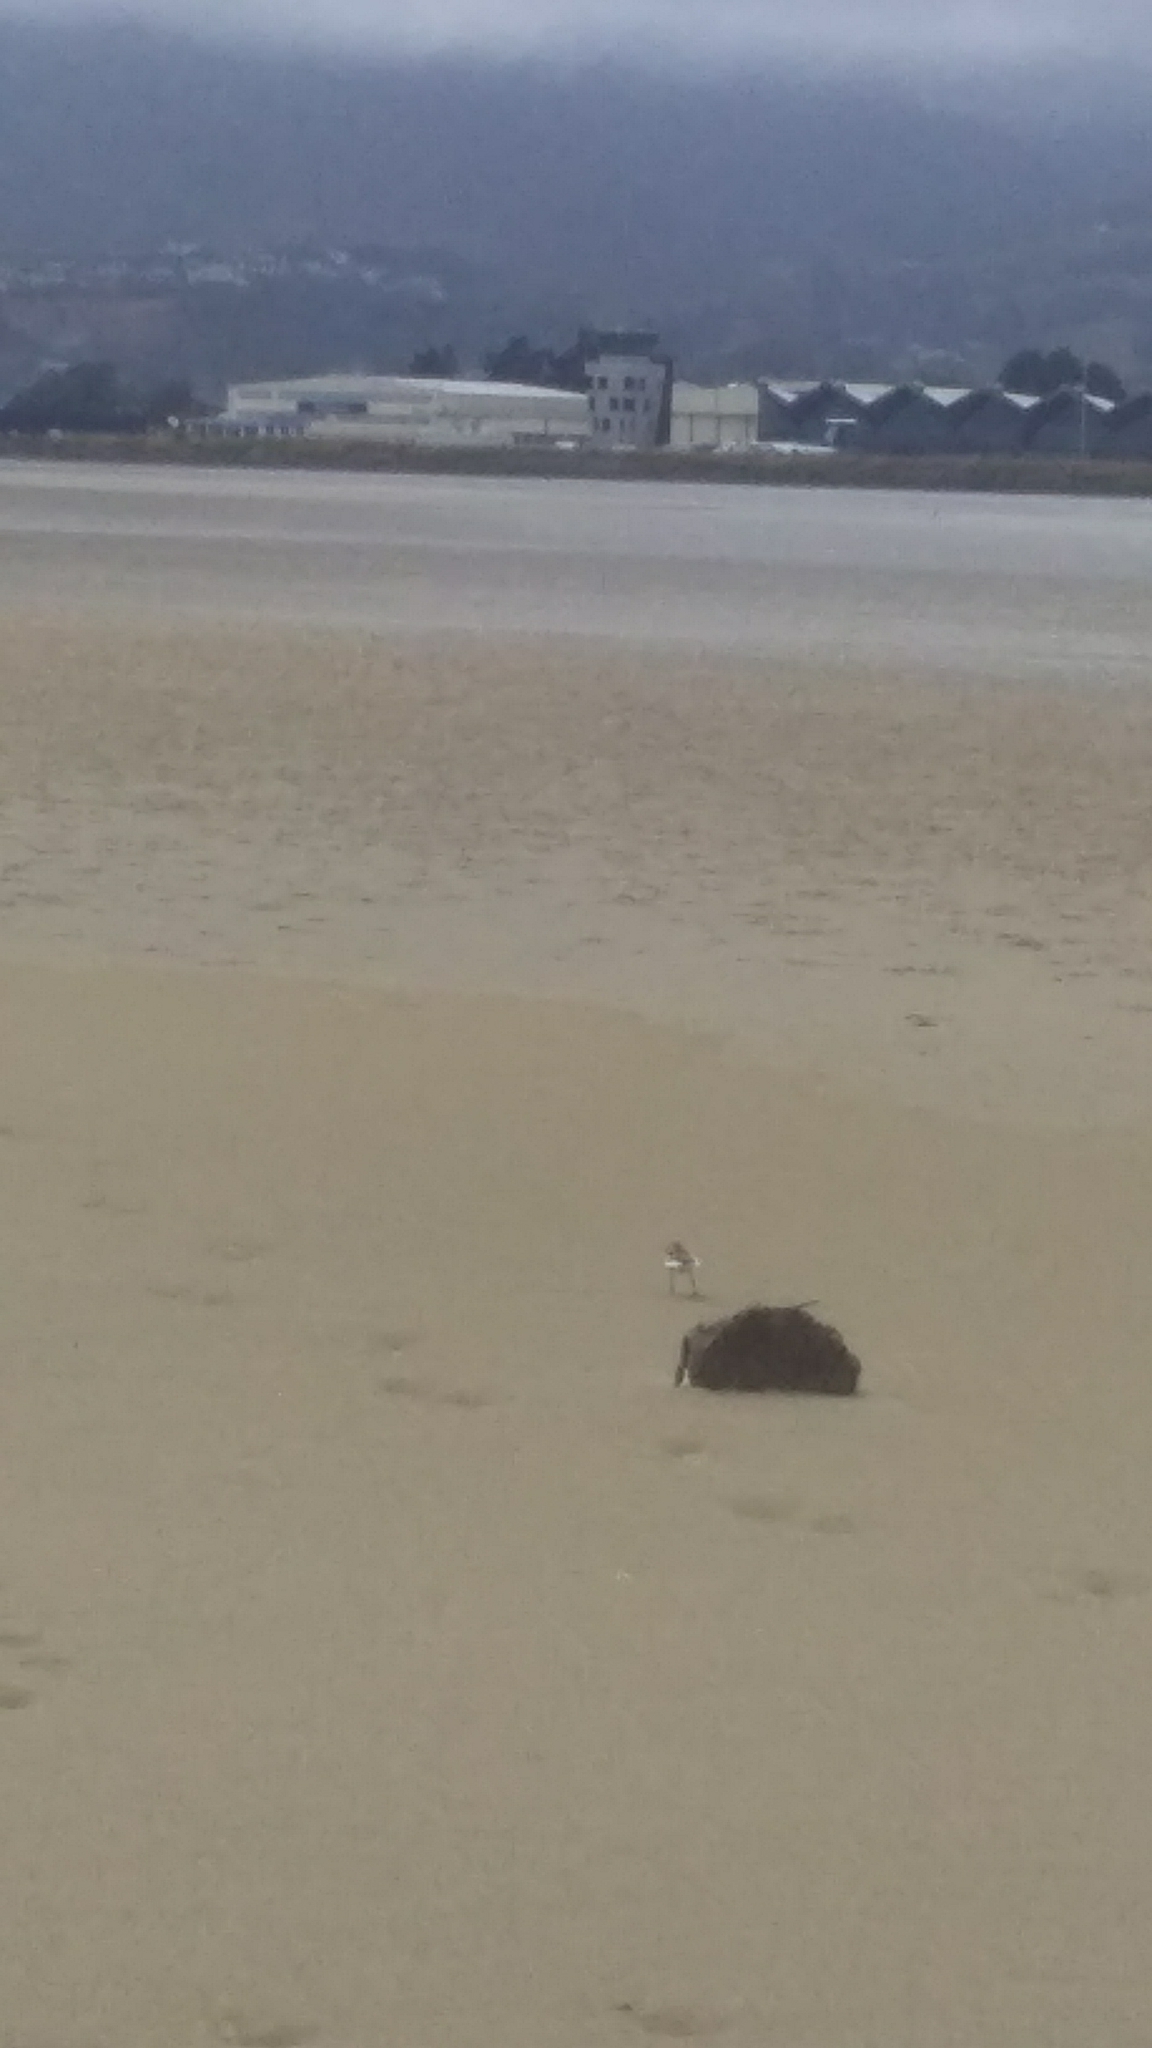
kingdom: Animalia
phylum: Chordata
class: Aves
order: Charadriiformes
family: Charadriidae
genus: Anarhynchus
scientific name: Anarhynchus
